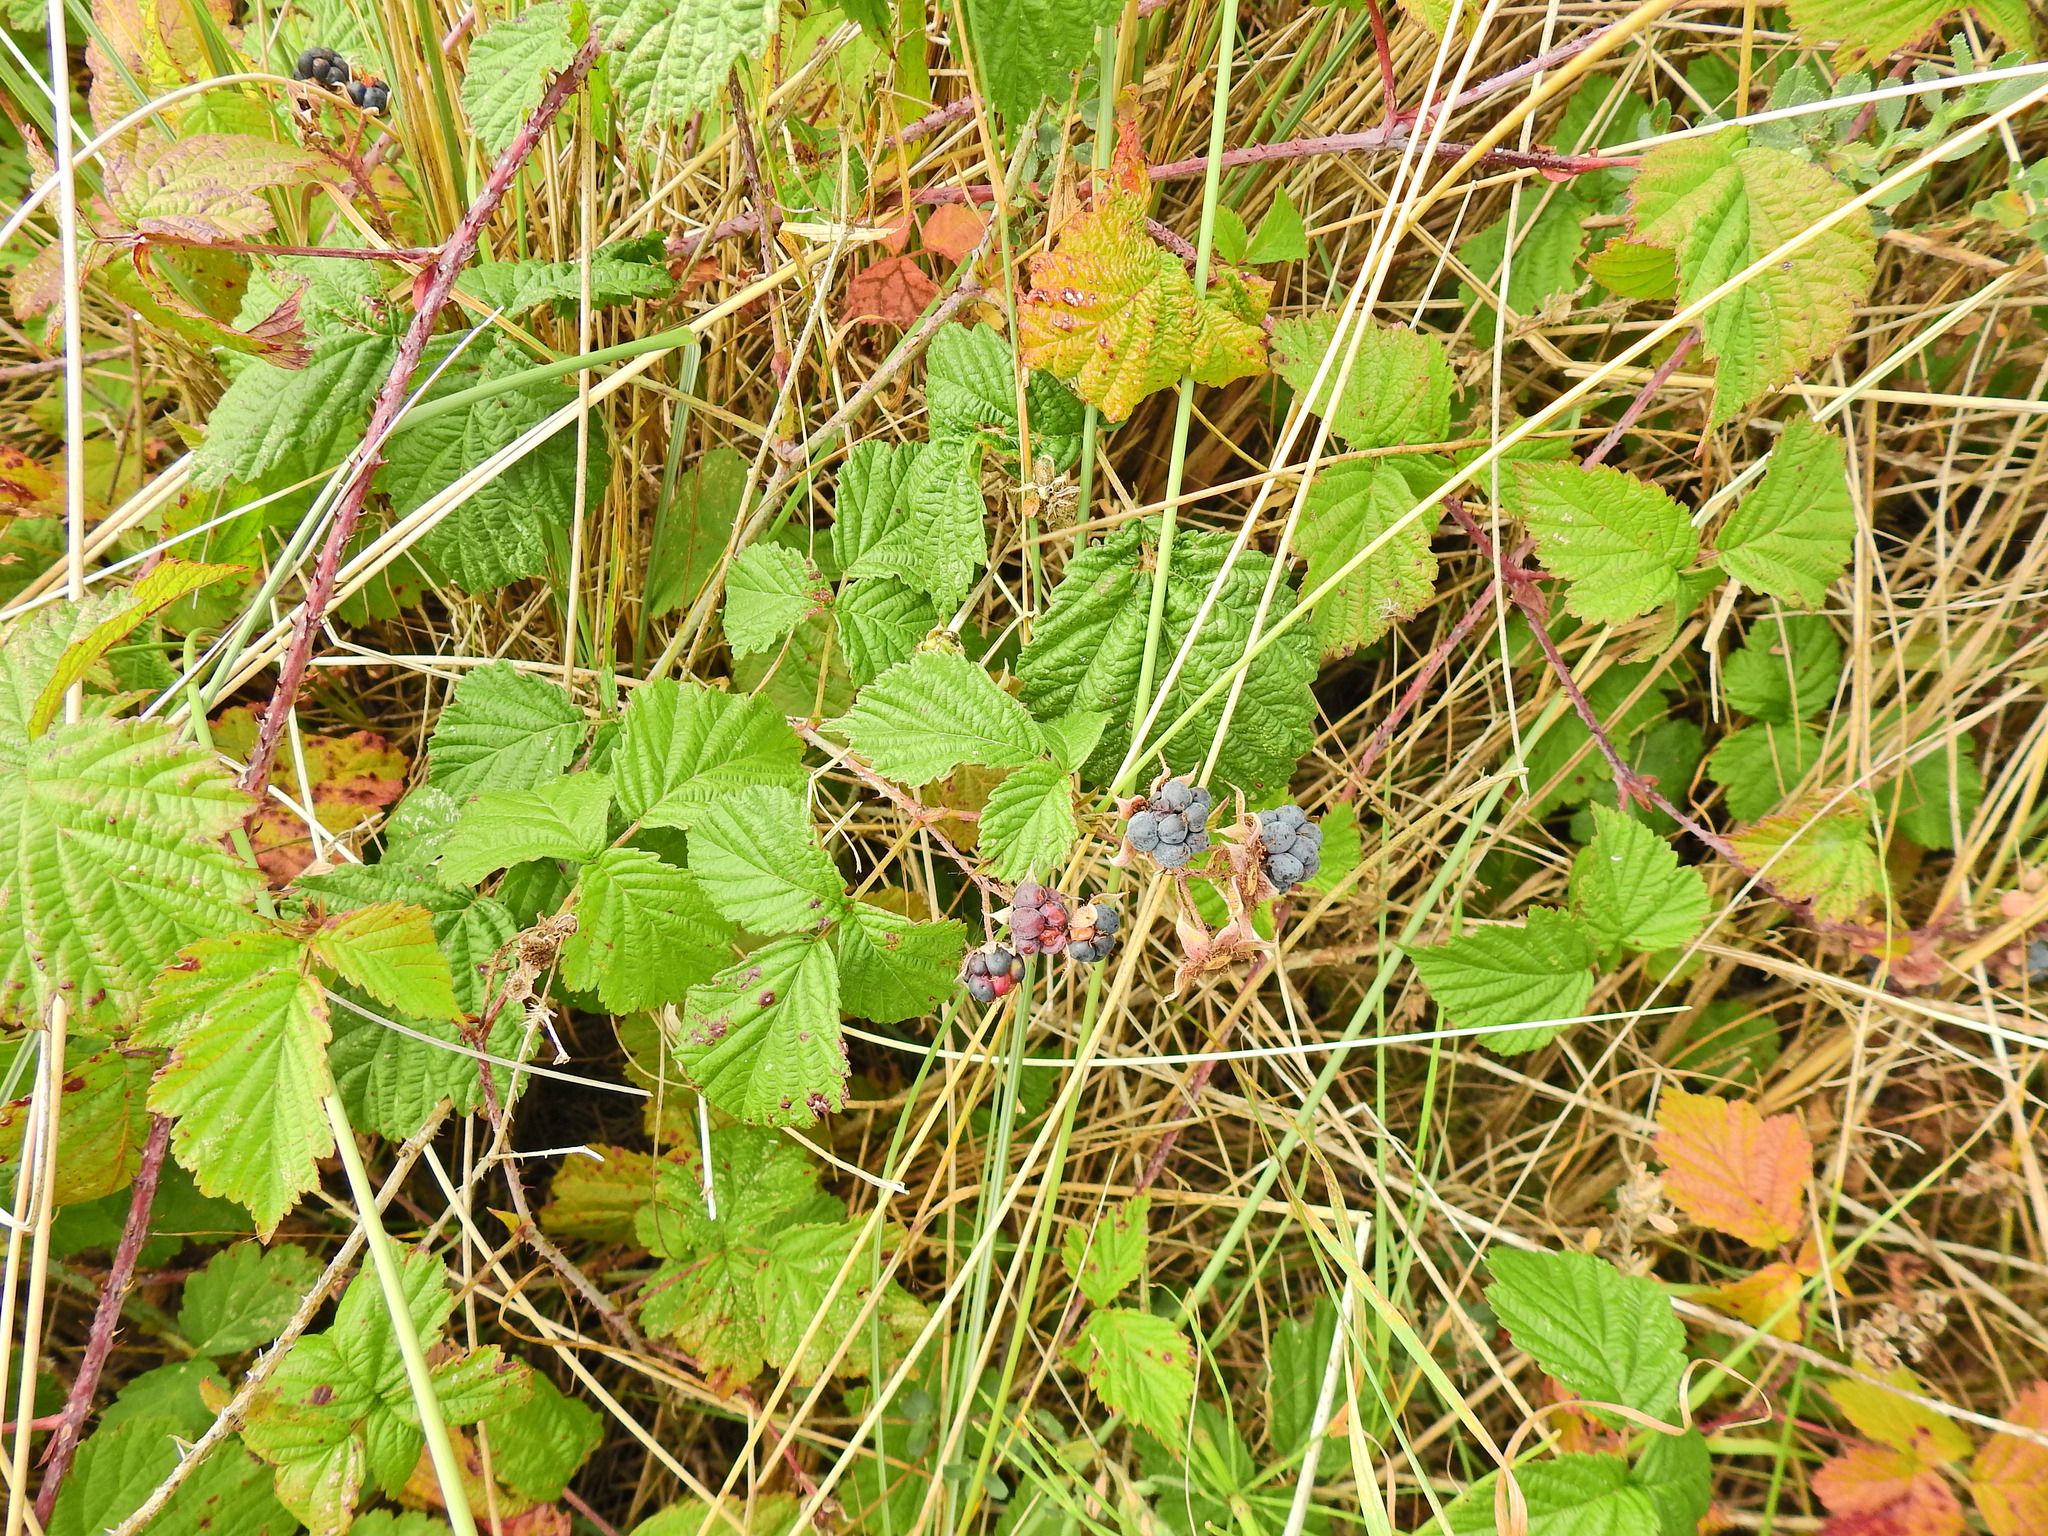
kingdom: Plantae
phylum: Tracheophyta
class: Magnoliopsida
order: Rosales
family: Rosaceae
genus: Rubus
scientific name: Rubus caesius
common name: Dewberry
